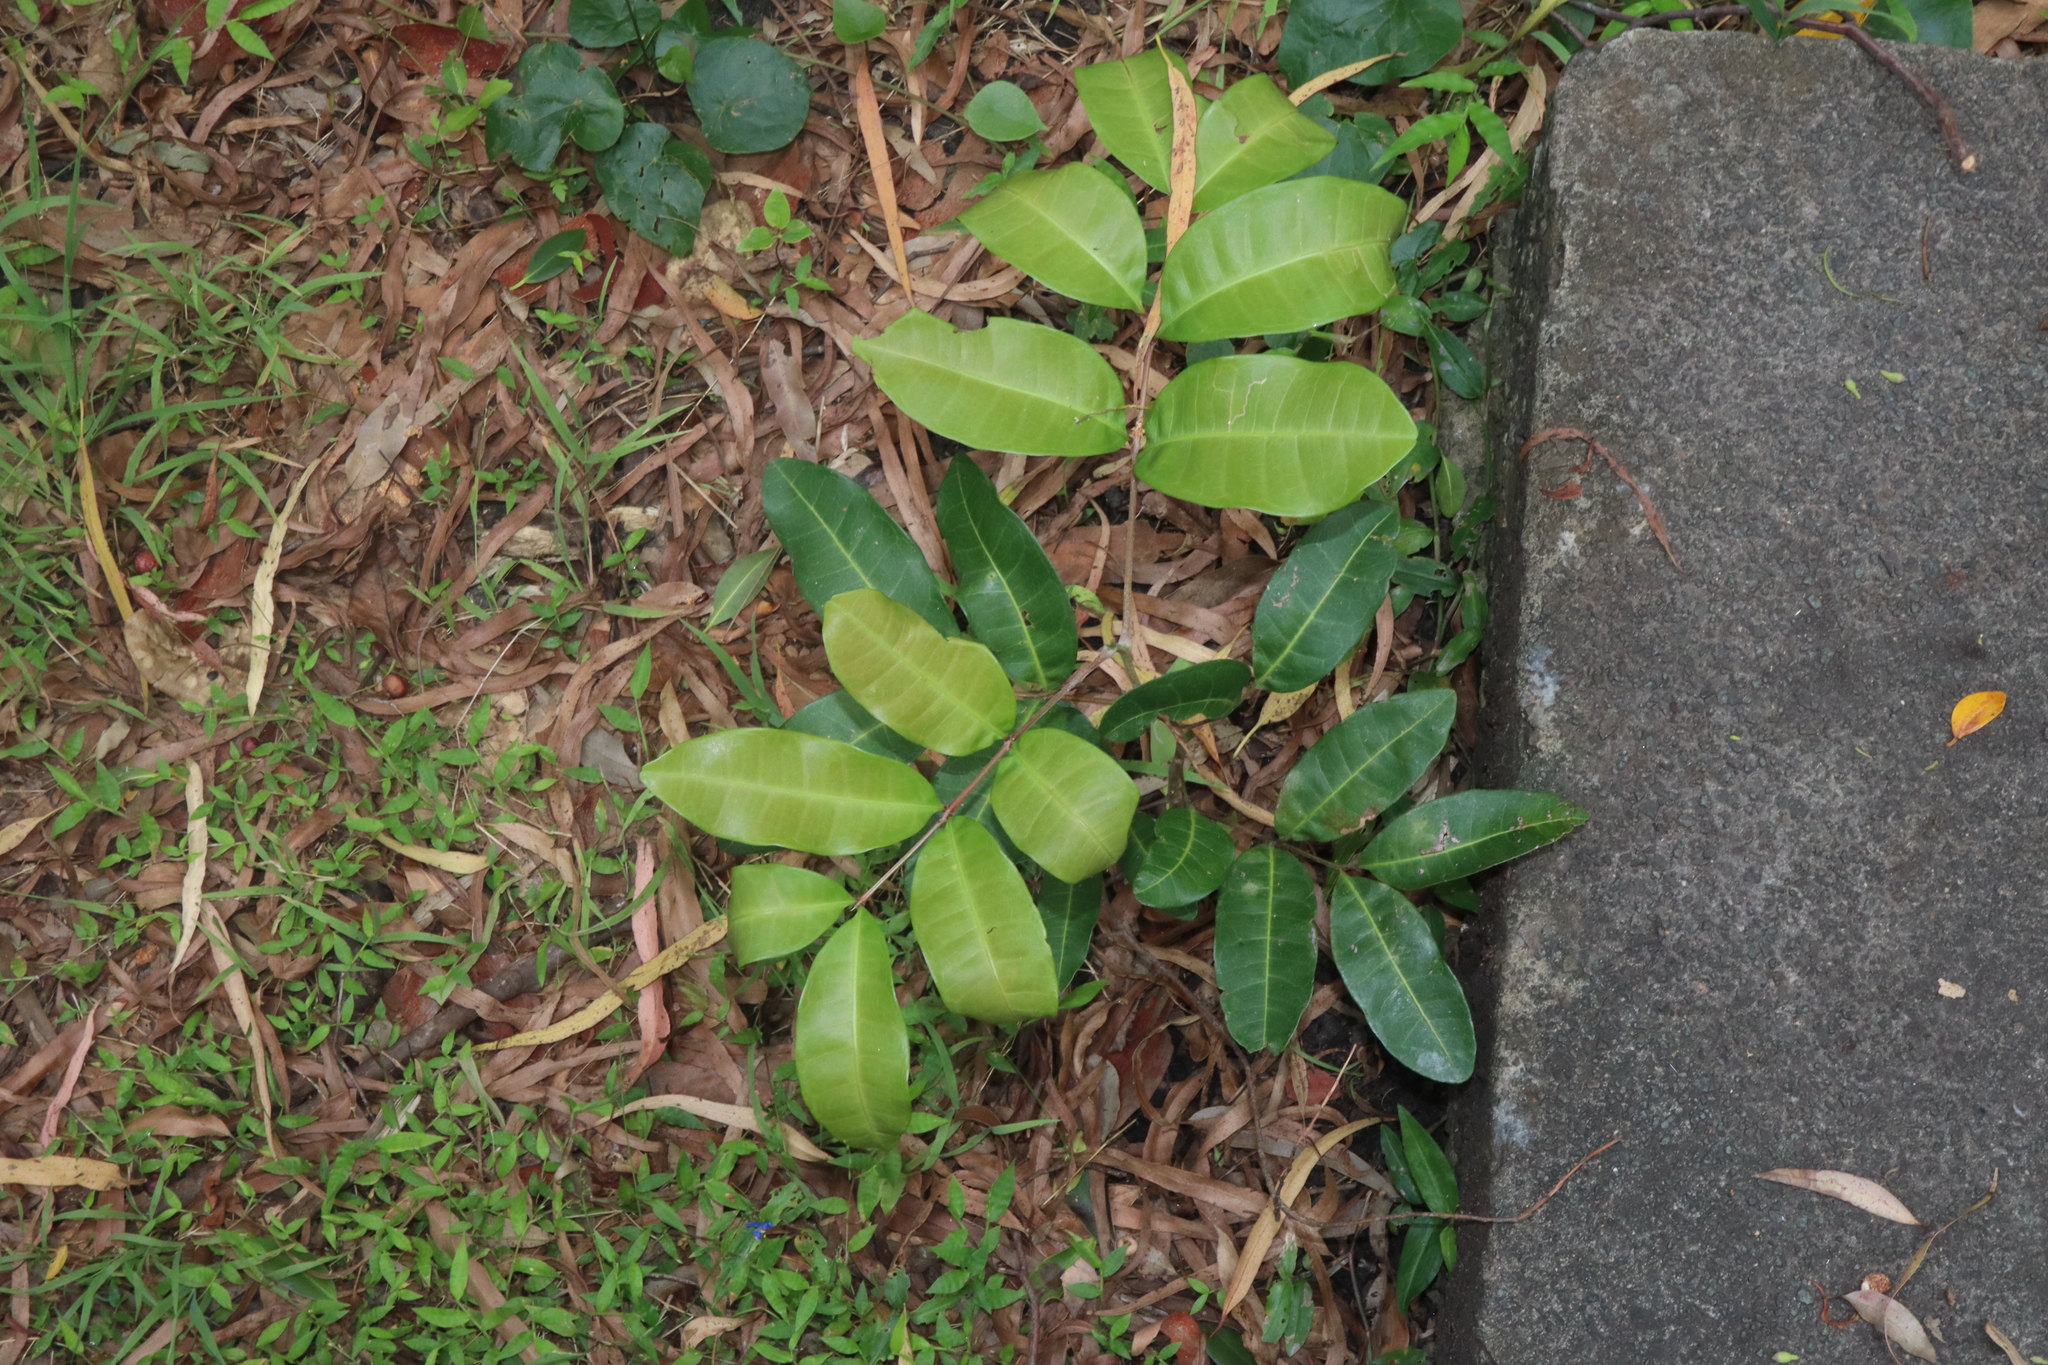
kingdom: Plantae
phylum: Tracheophyta
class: Magnoliopsida
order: Sapindales
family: Sapindaceae
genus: Cupaniopsis
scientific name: Cupaniopsis anacardioides
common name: Carrotwood
